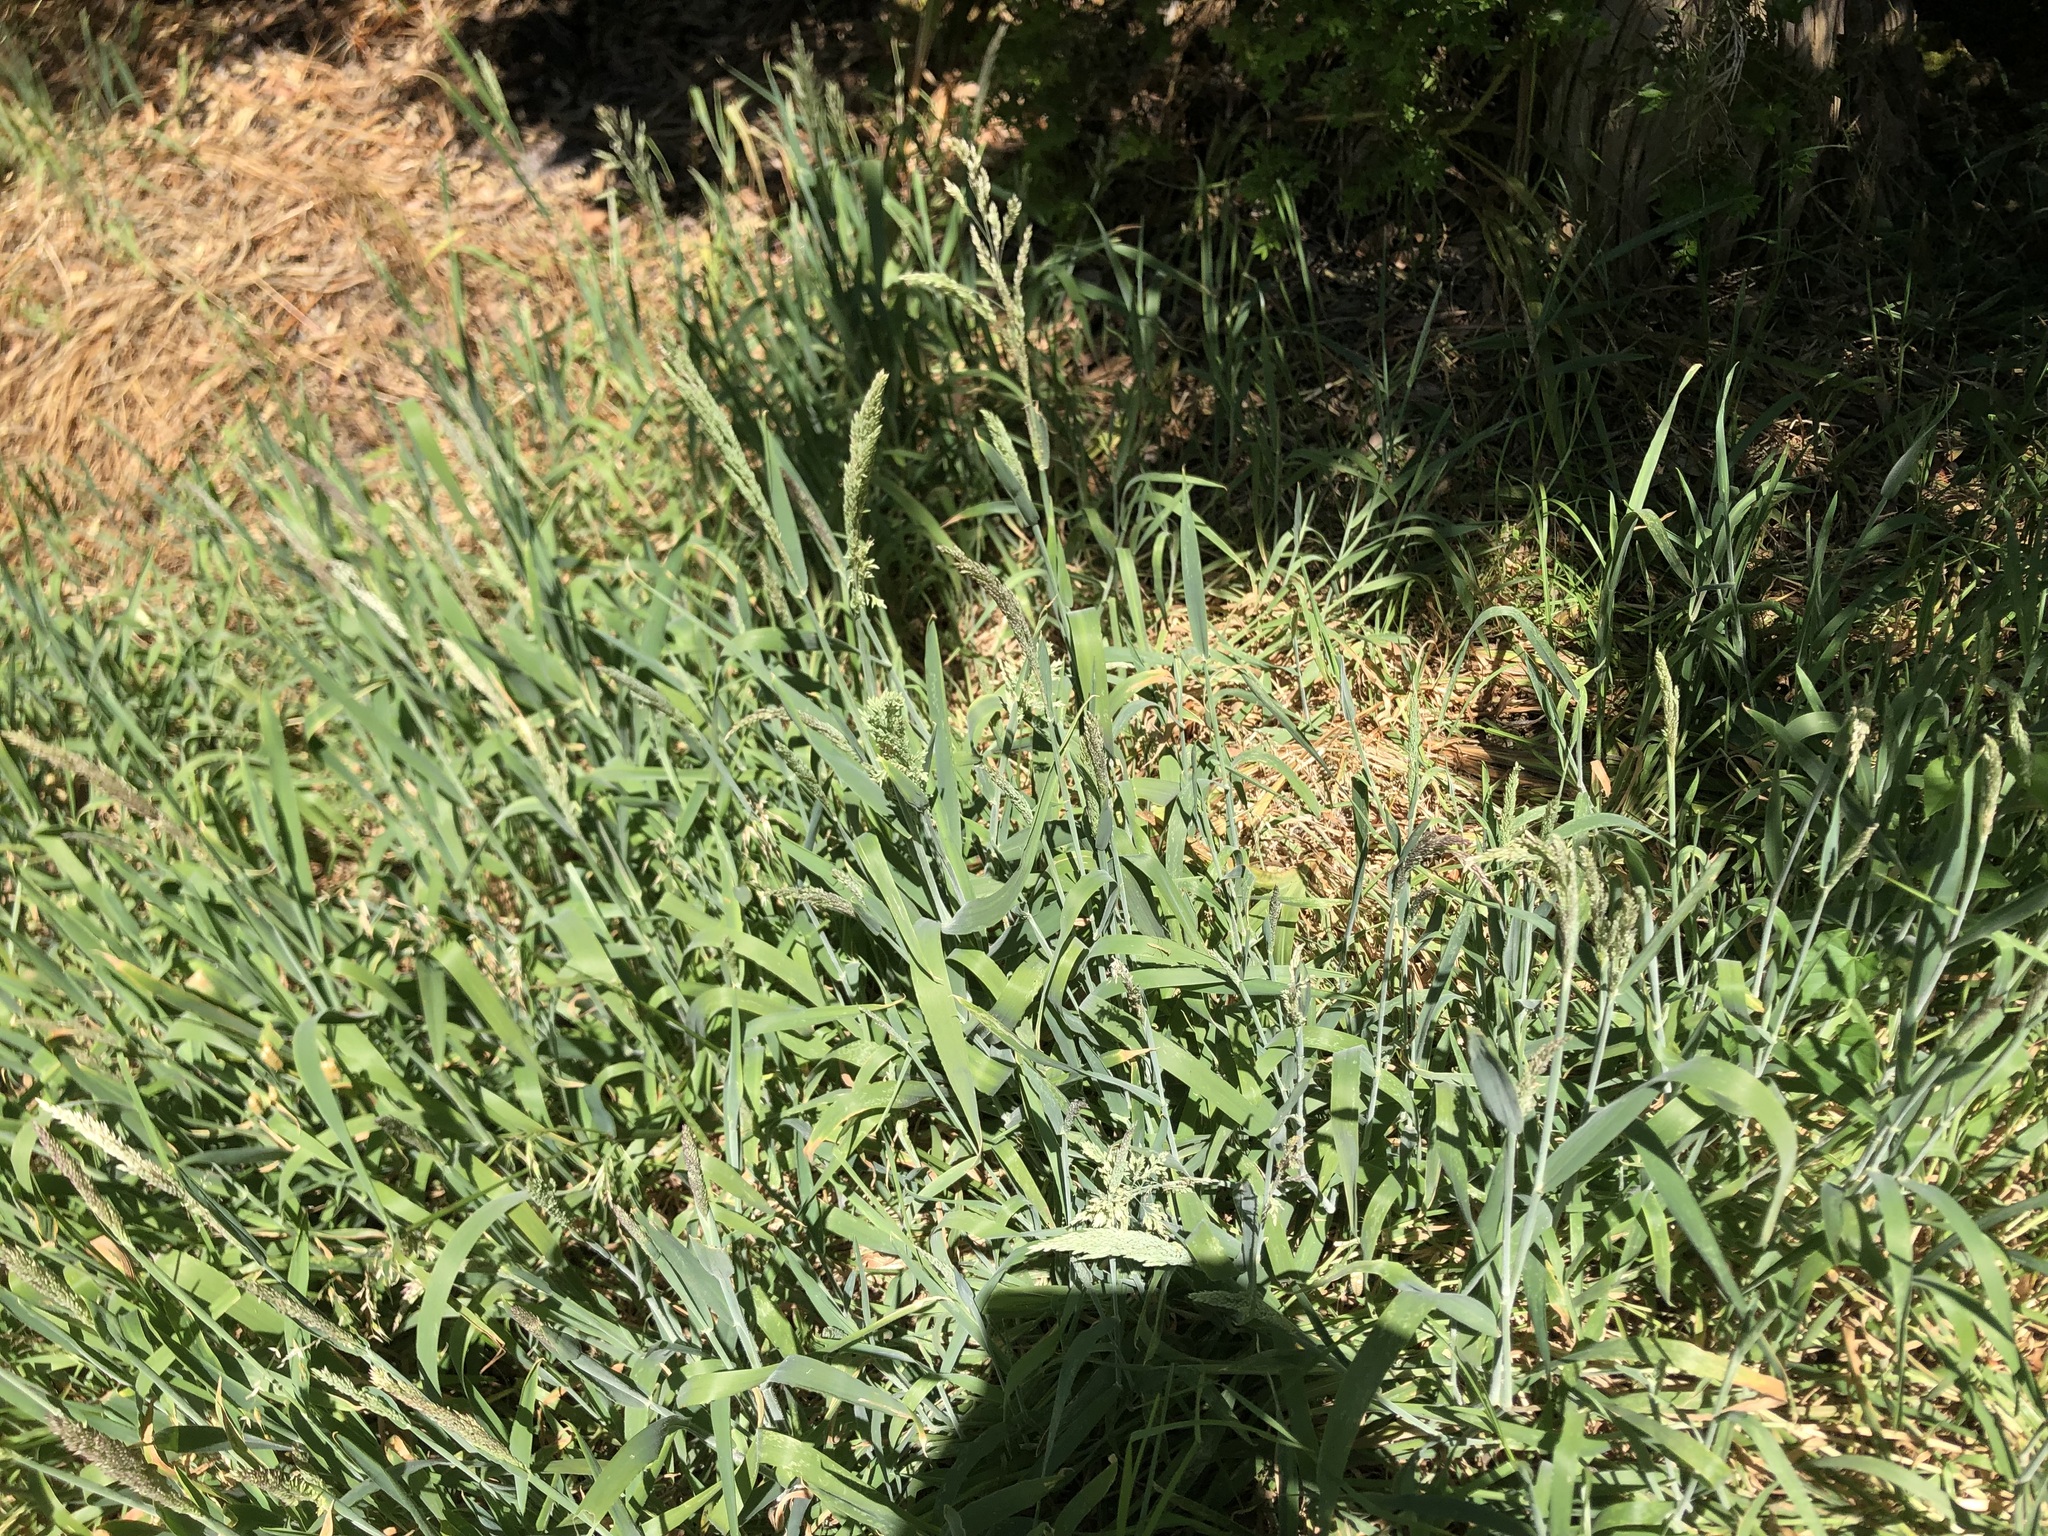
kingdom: Plantae
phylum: Tracheophyta
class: Liliopsida
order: Poales
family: Poaceae
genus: Holcus
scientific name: Holcus lanatus
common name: Yorkshire-fog
